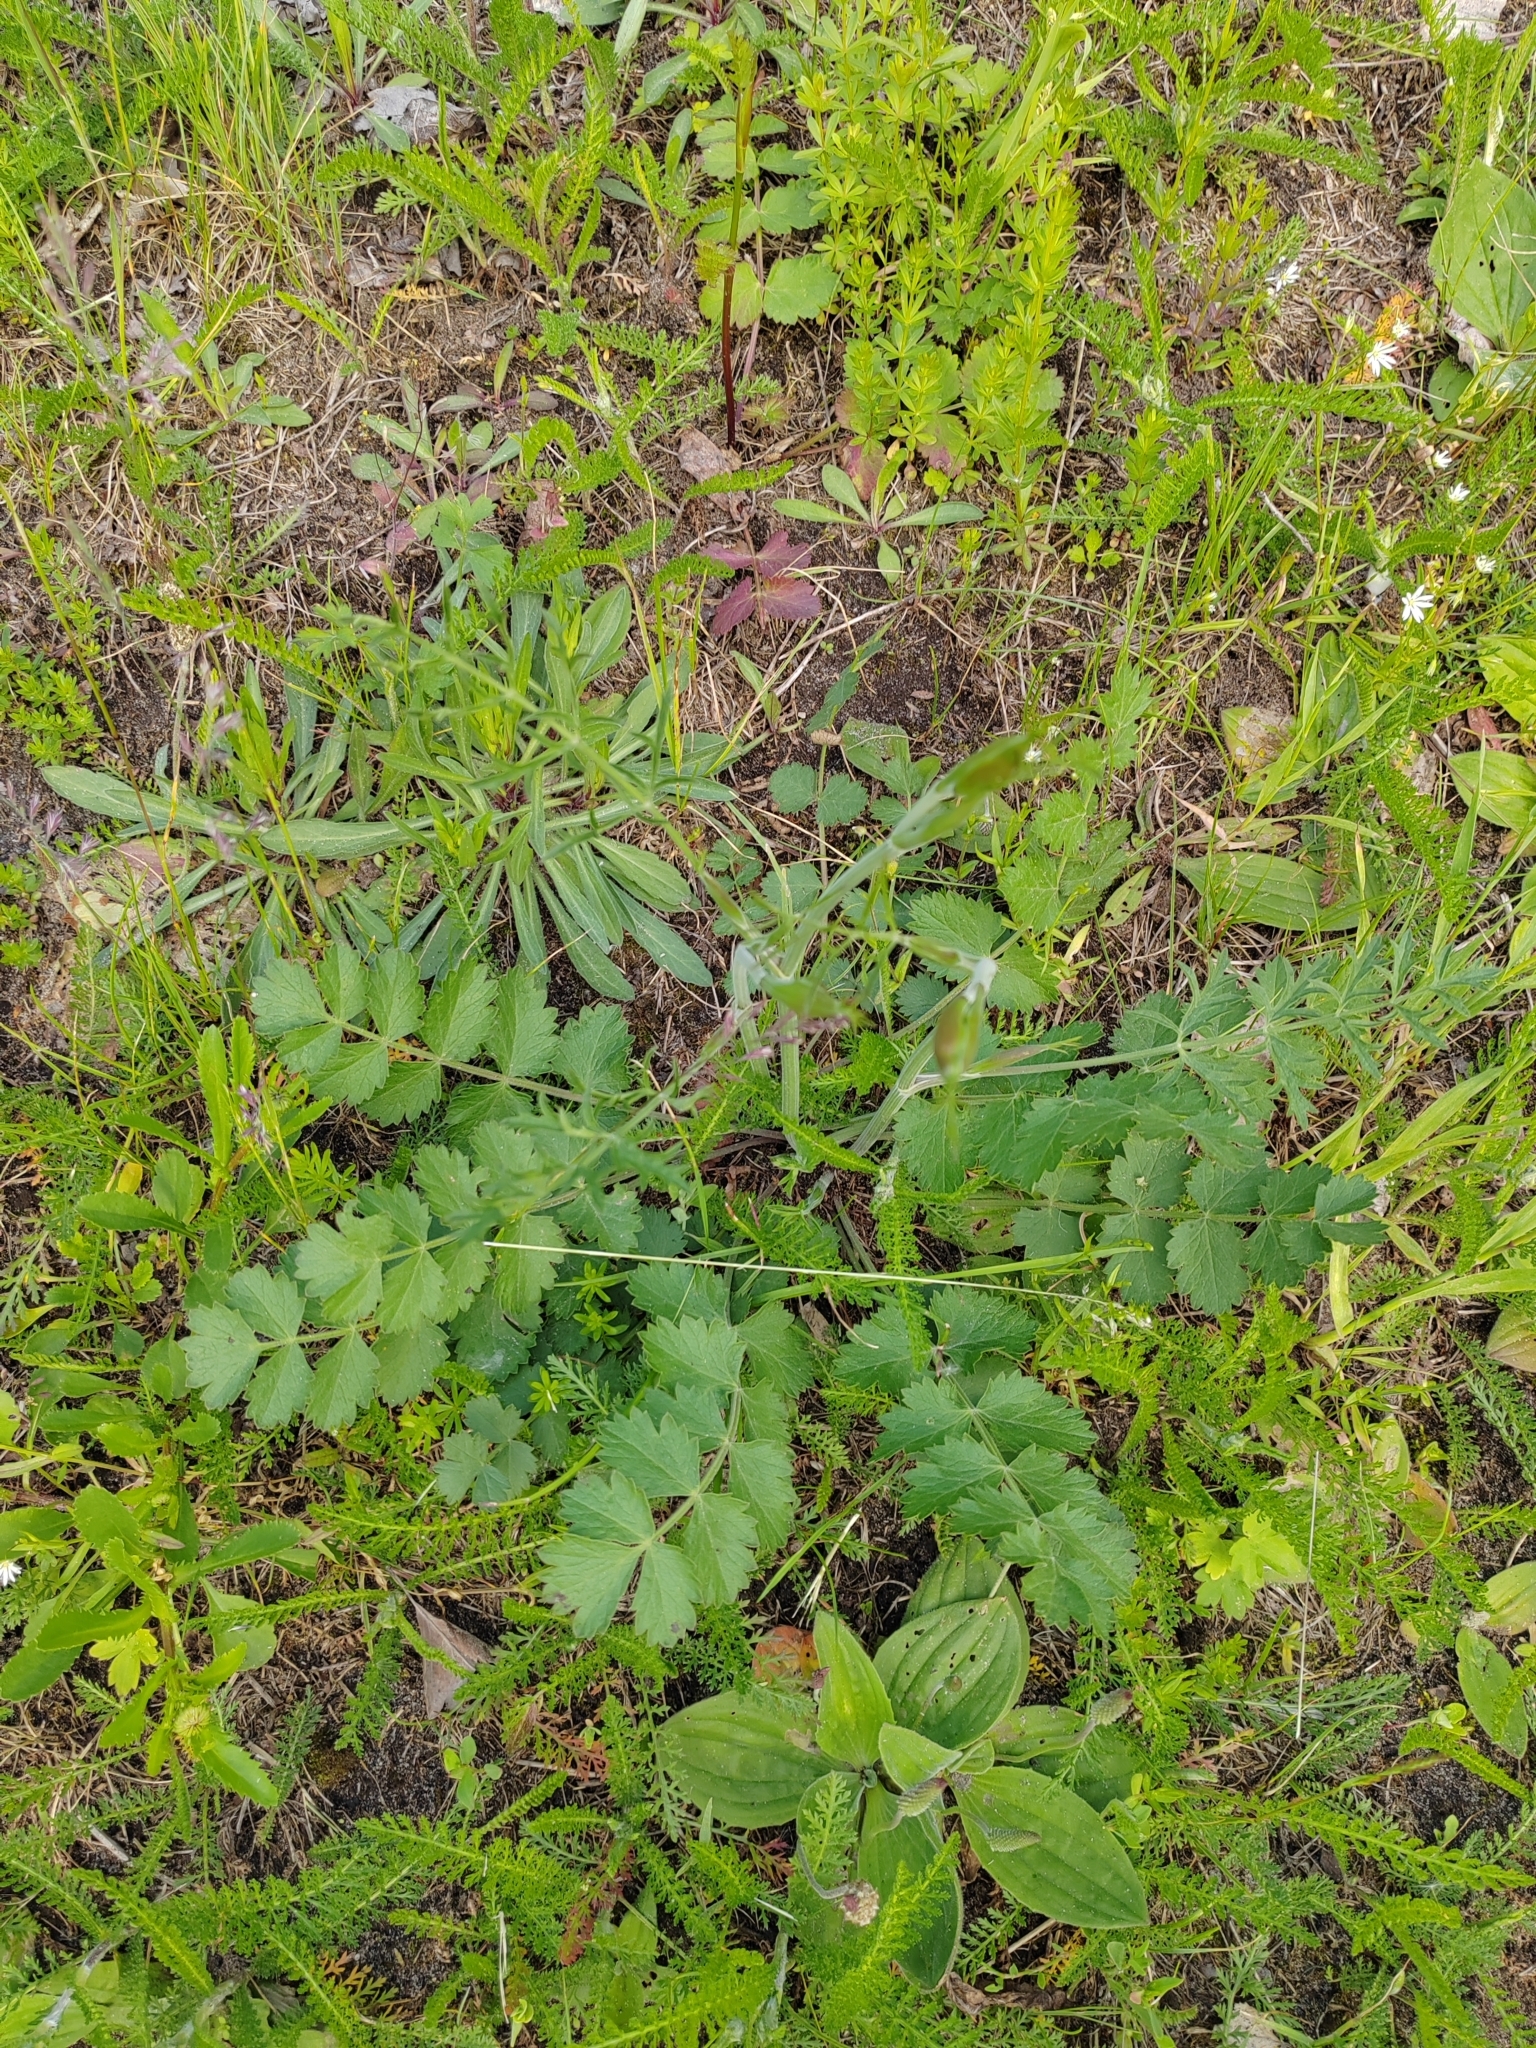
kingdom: Plantae
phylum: Tracheophyta
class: Magnoliopsida
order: Apiales
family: Apiaceae
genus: Pimpinella
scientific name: Pimpinella saxifraga
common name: Burnet-saxifrage
